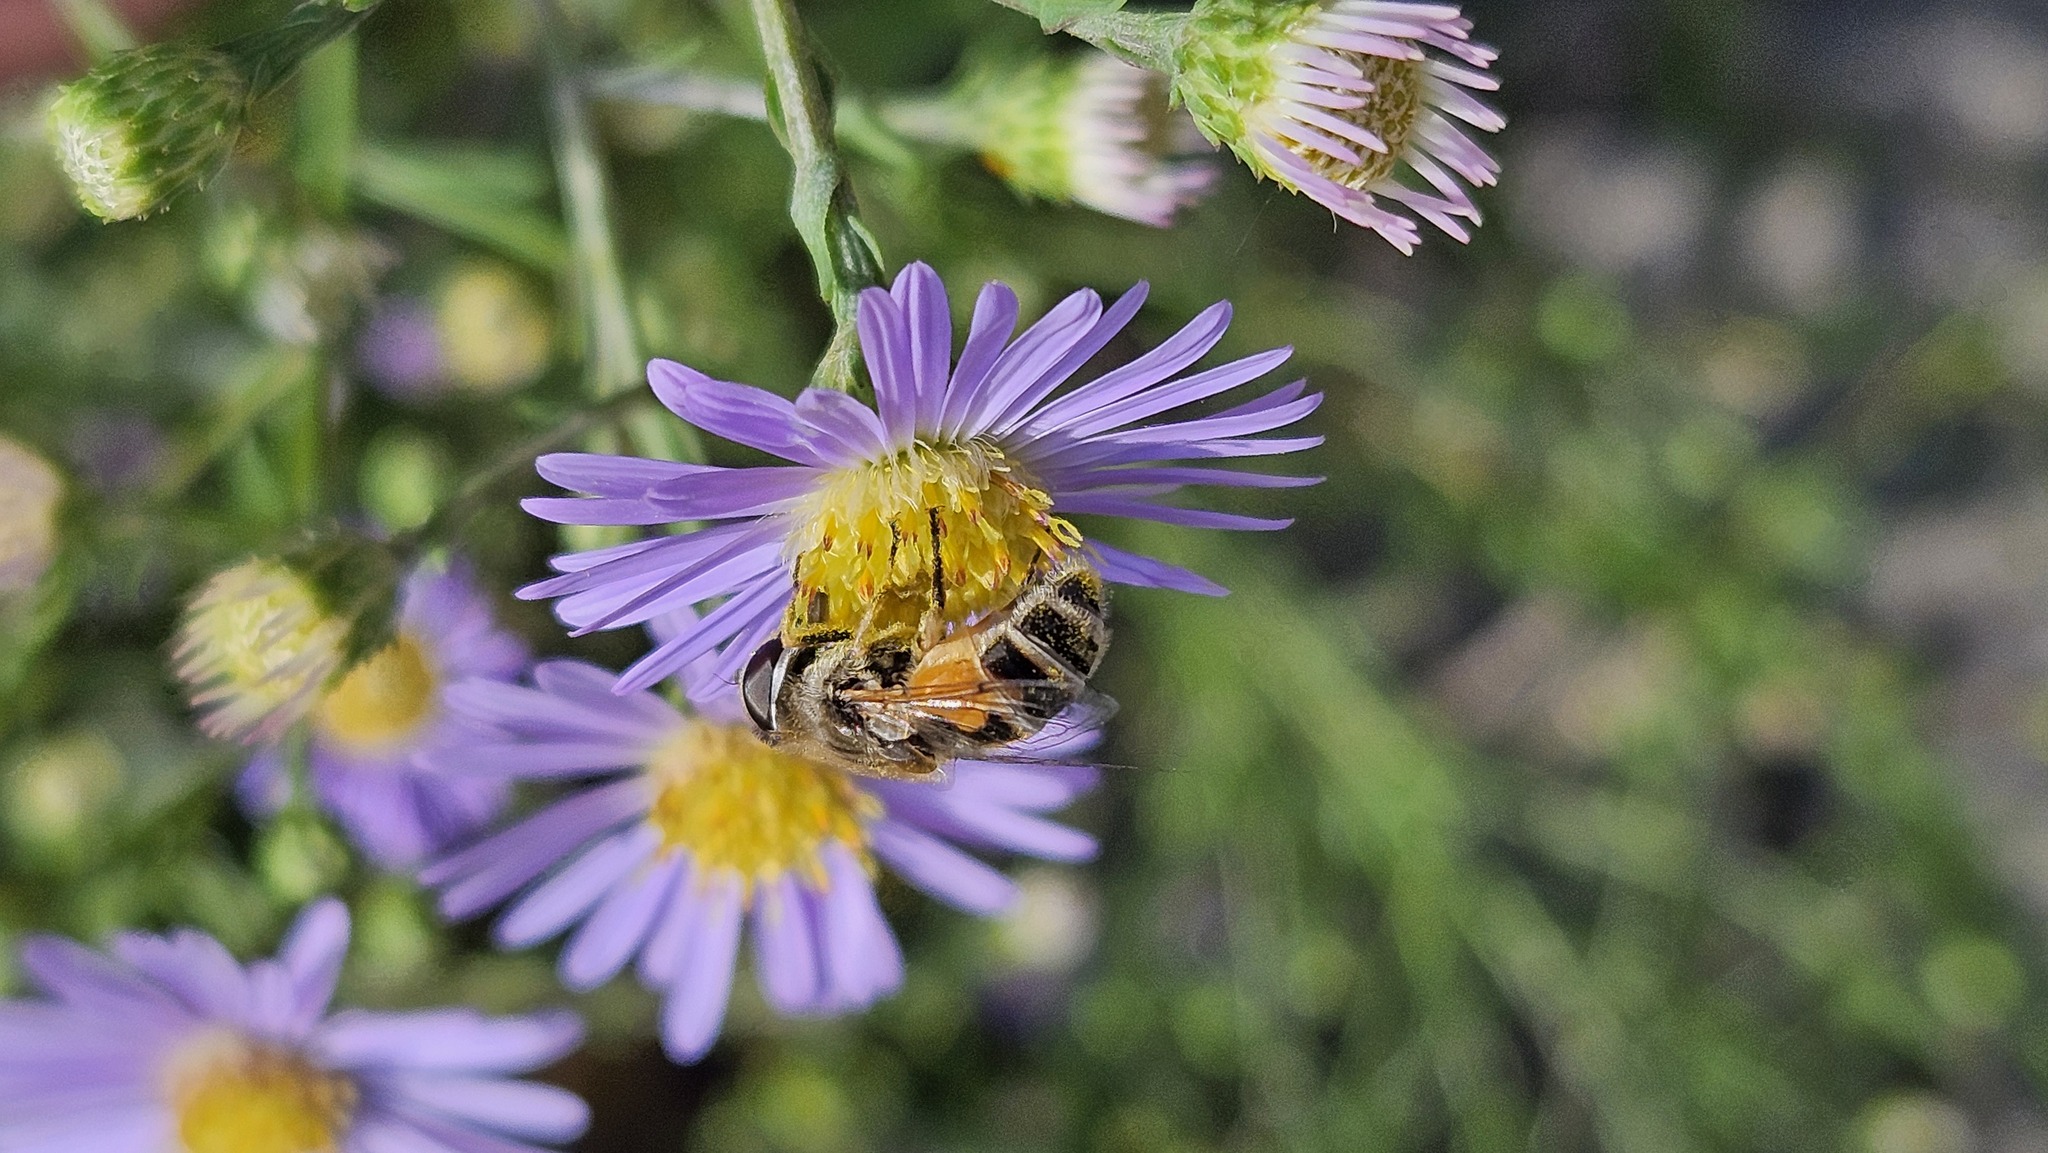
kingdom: Animalia
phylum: Arthropoda
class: Insecta
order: Diptera
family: Syrphidae
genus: Eristalis
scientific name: Eristalis arbustorum
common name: Hover fly
